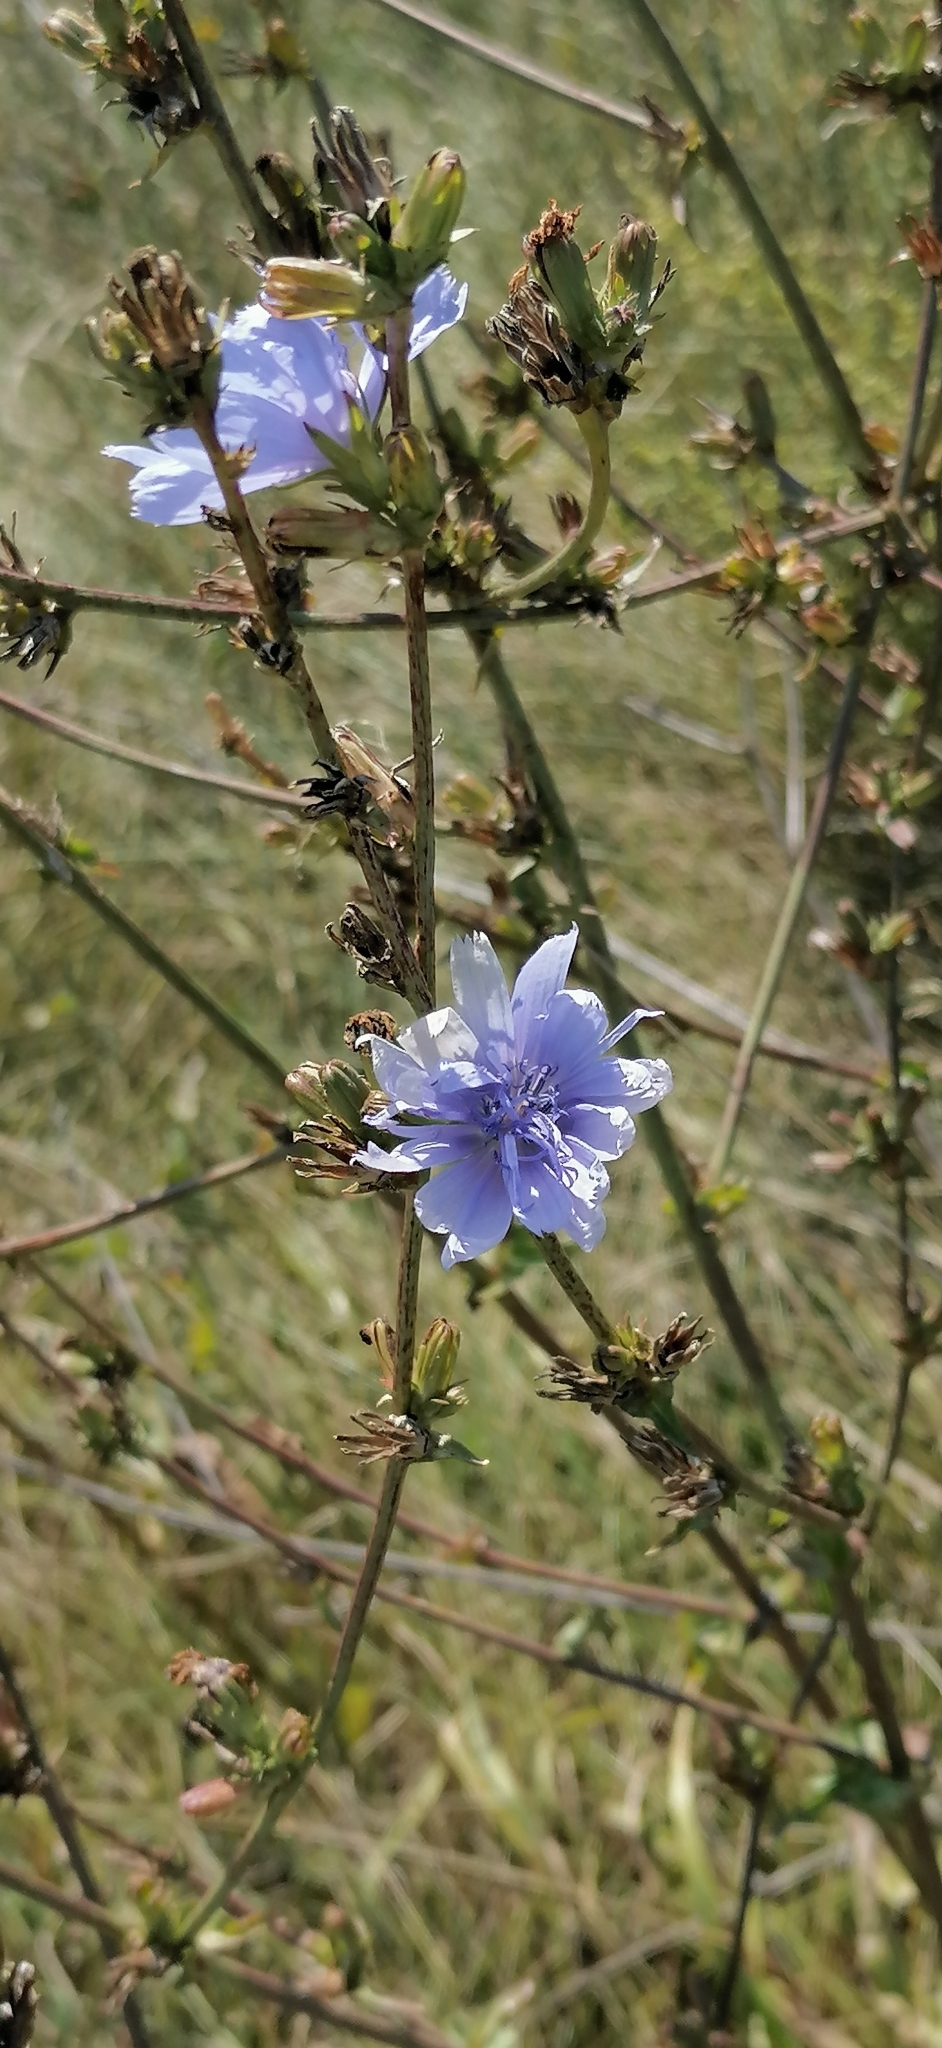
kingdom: Plantae
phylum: Tracheophyta
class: Magnoliopsida
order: Asterales
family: Asteraceae
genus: Cichorium
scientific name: Cichorium intybus
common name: Chicory
